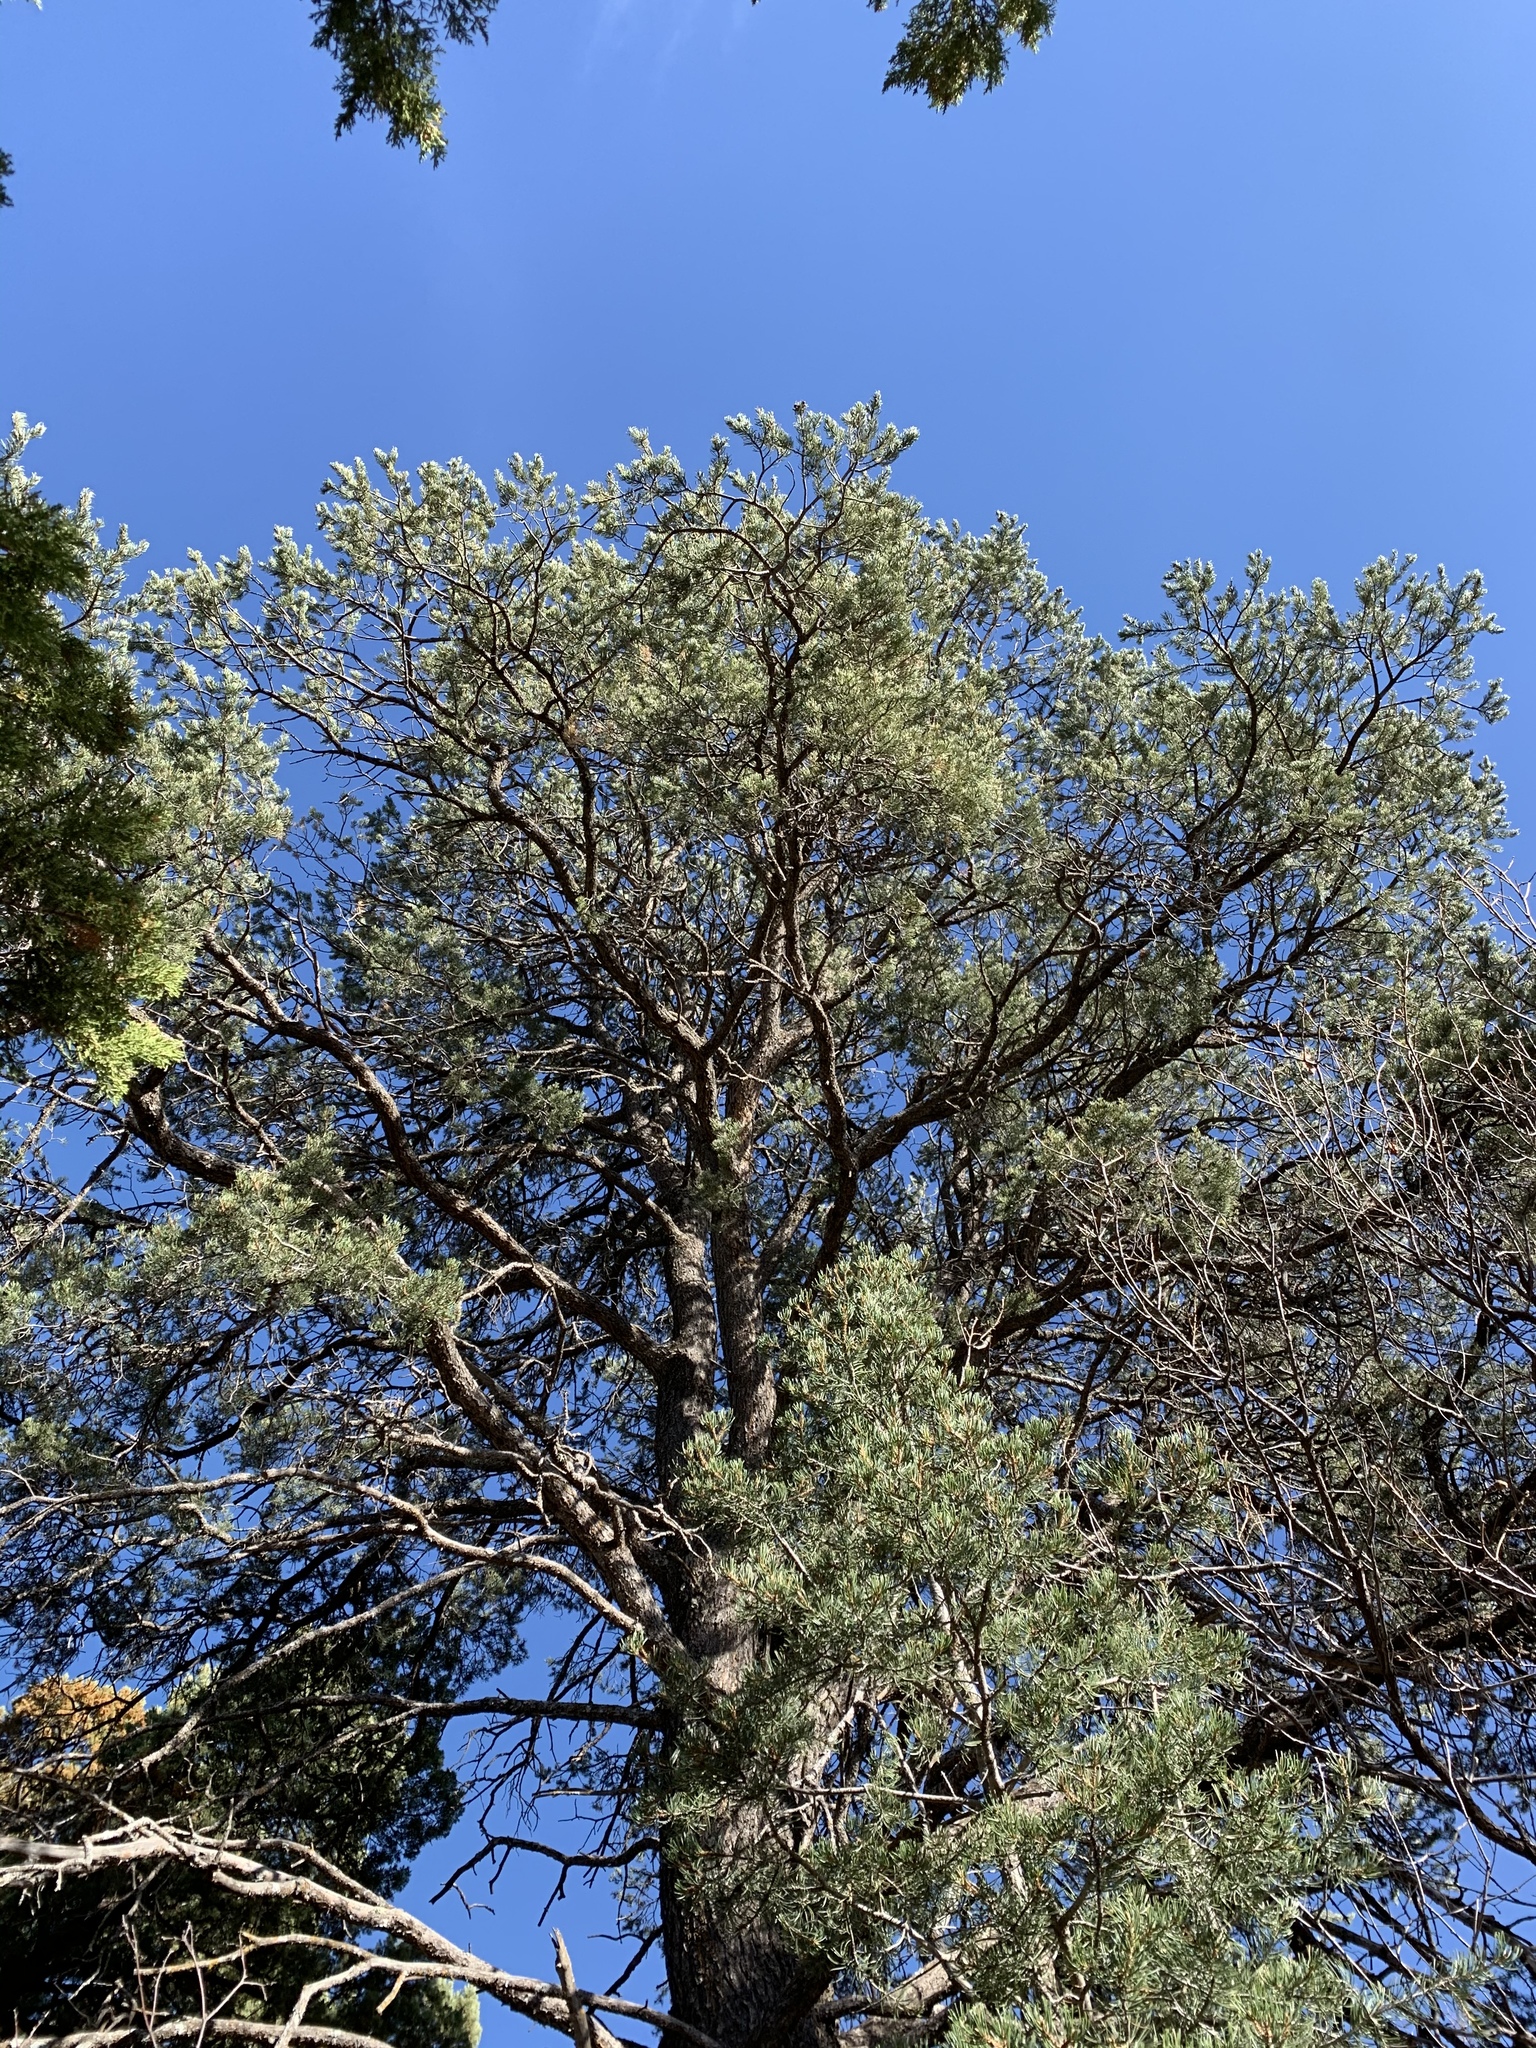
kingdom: Plantae
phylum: Tracheophyta
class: Pinopsida
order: Pinales
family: Pinaceae
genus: Pinus
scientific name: Pinus edulis
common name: Colorado pinyon
